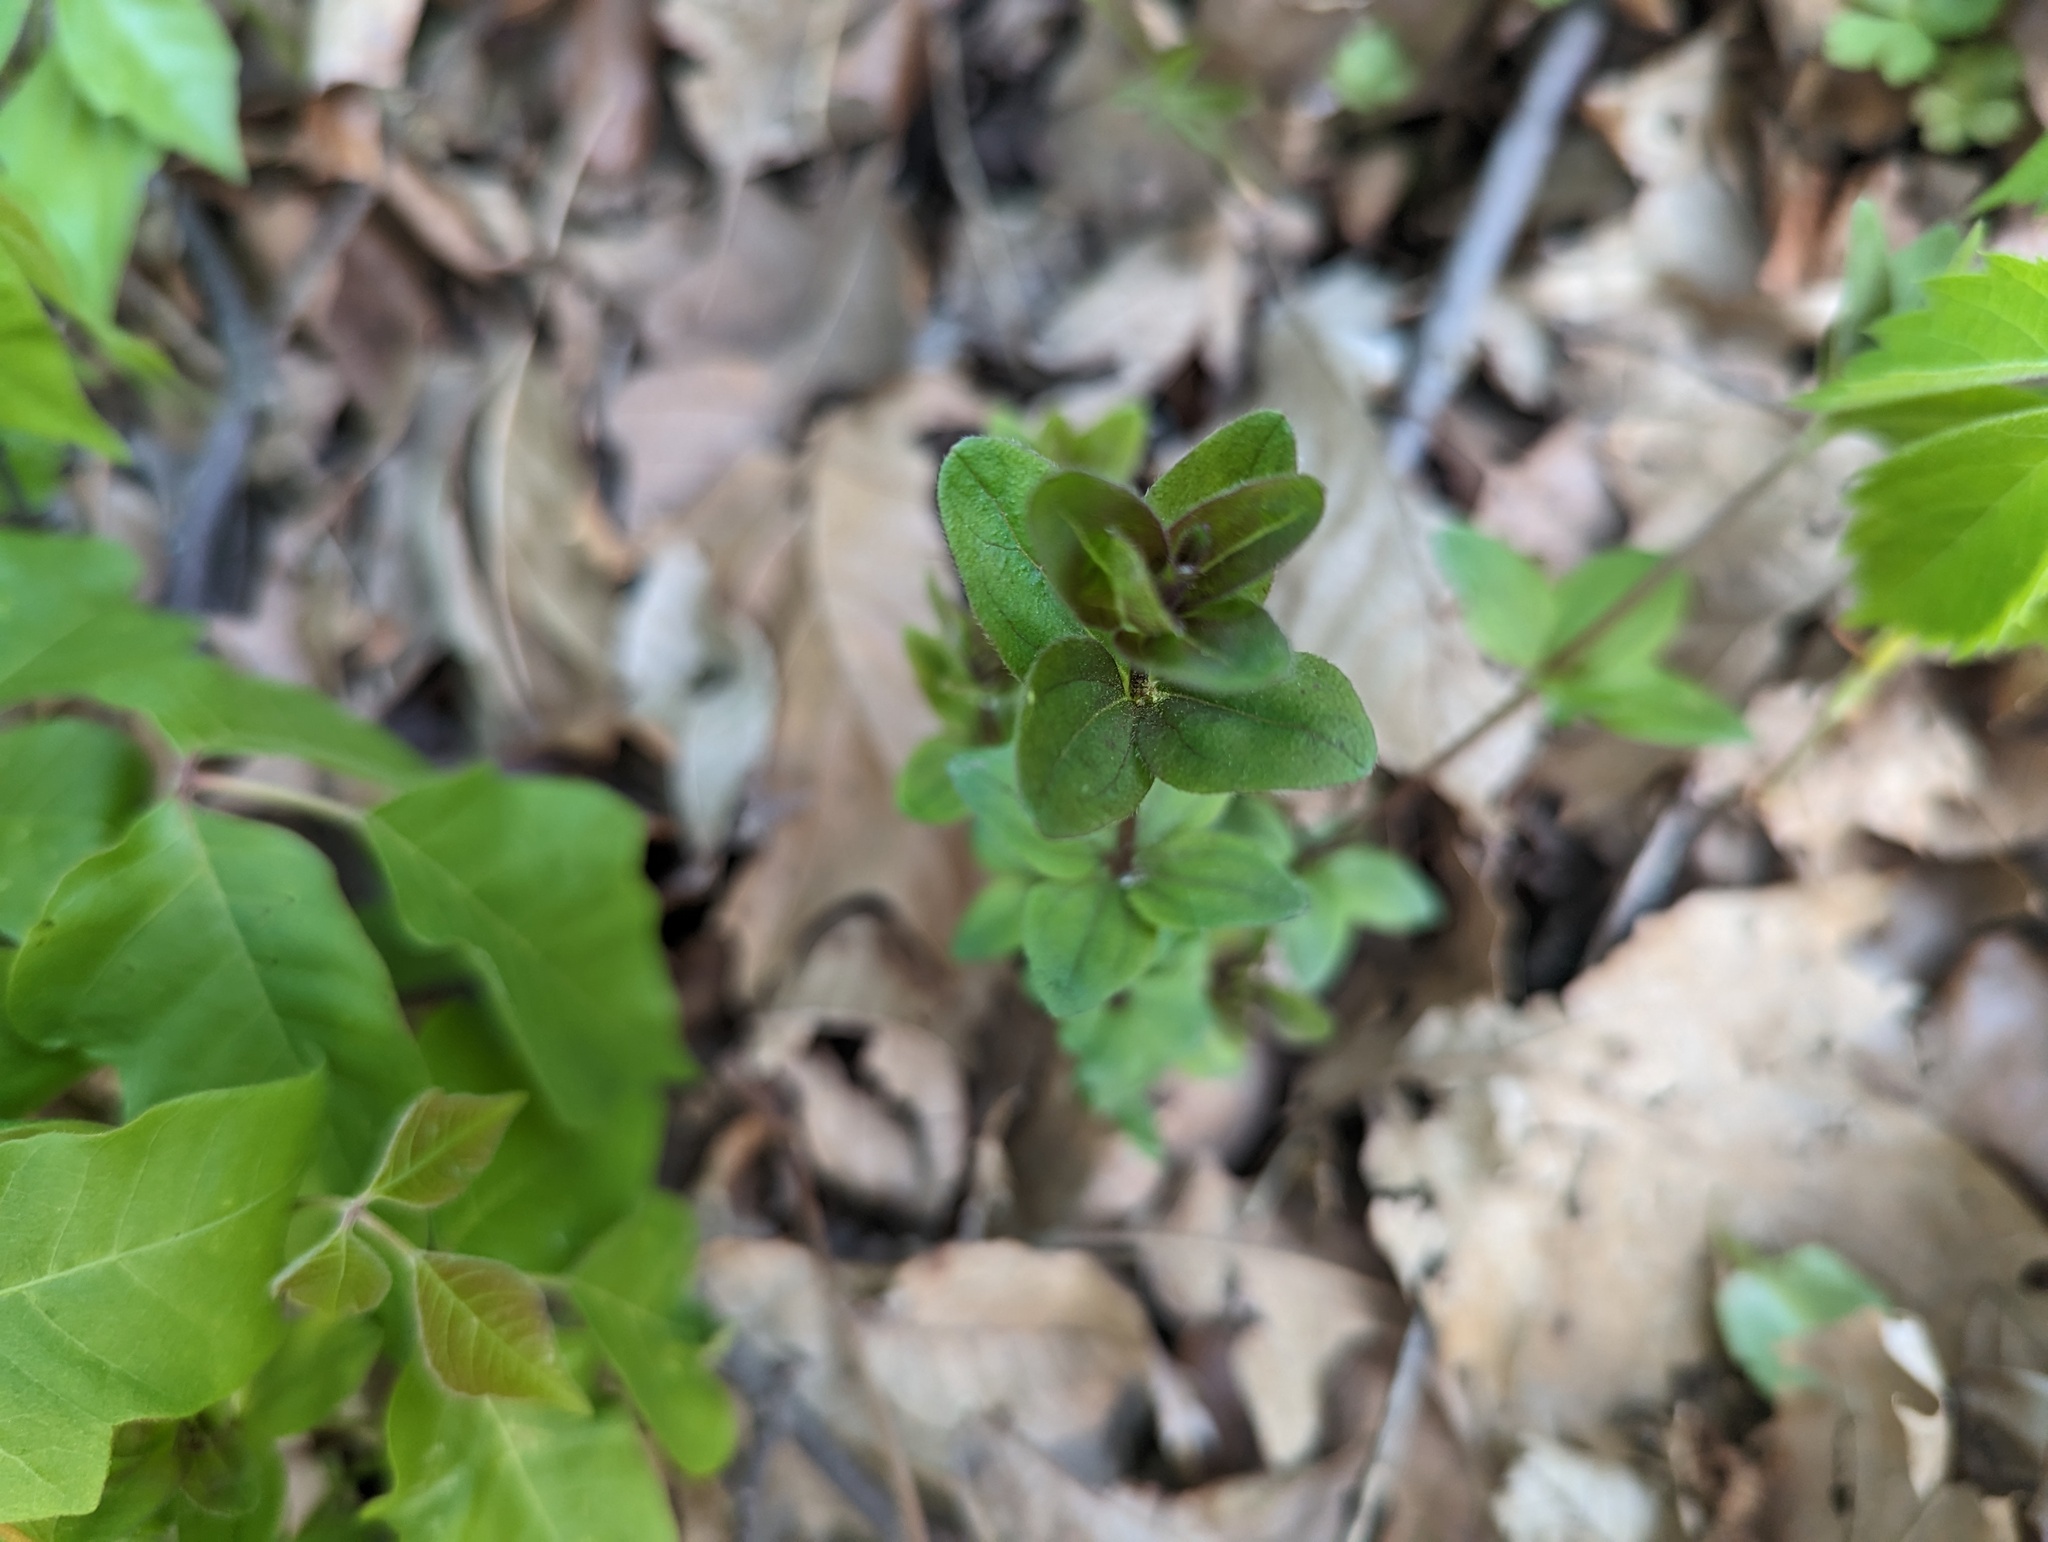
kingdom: Plantae
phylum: Tracheophyta
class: Magnoliopsida
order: Gentianales
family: Rubiaceae
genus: Galium
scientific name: Galium circaezans
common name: Forest bedstraw
